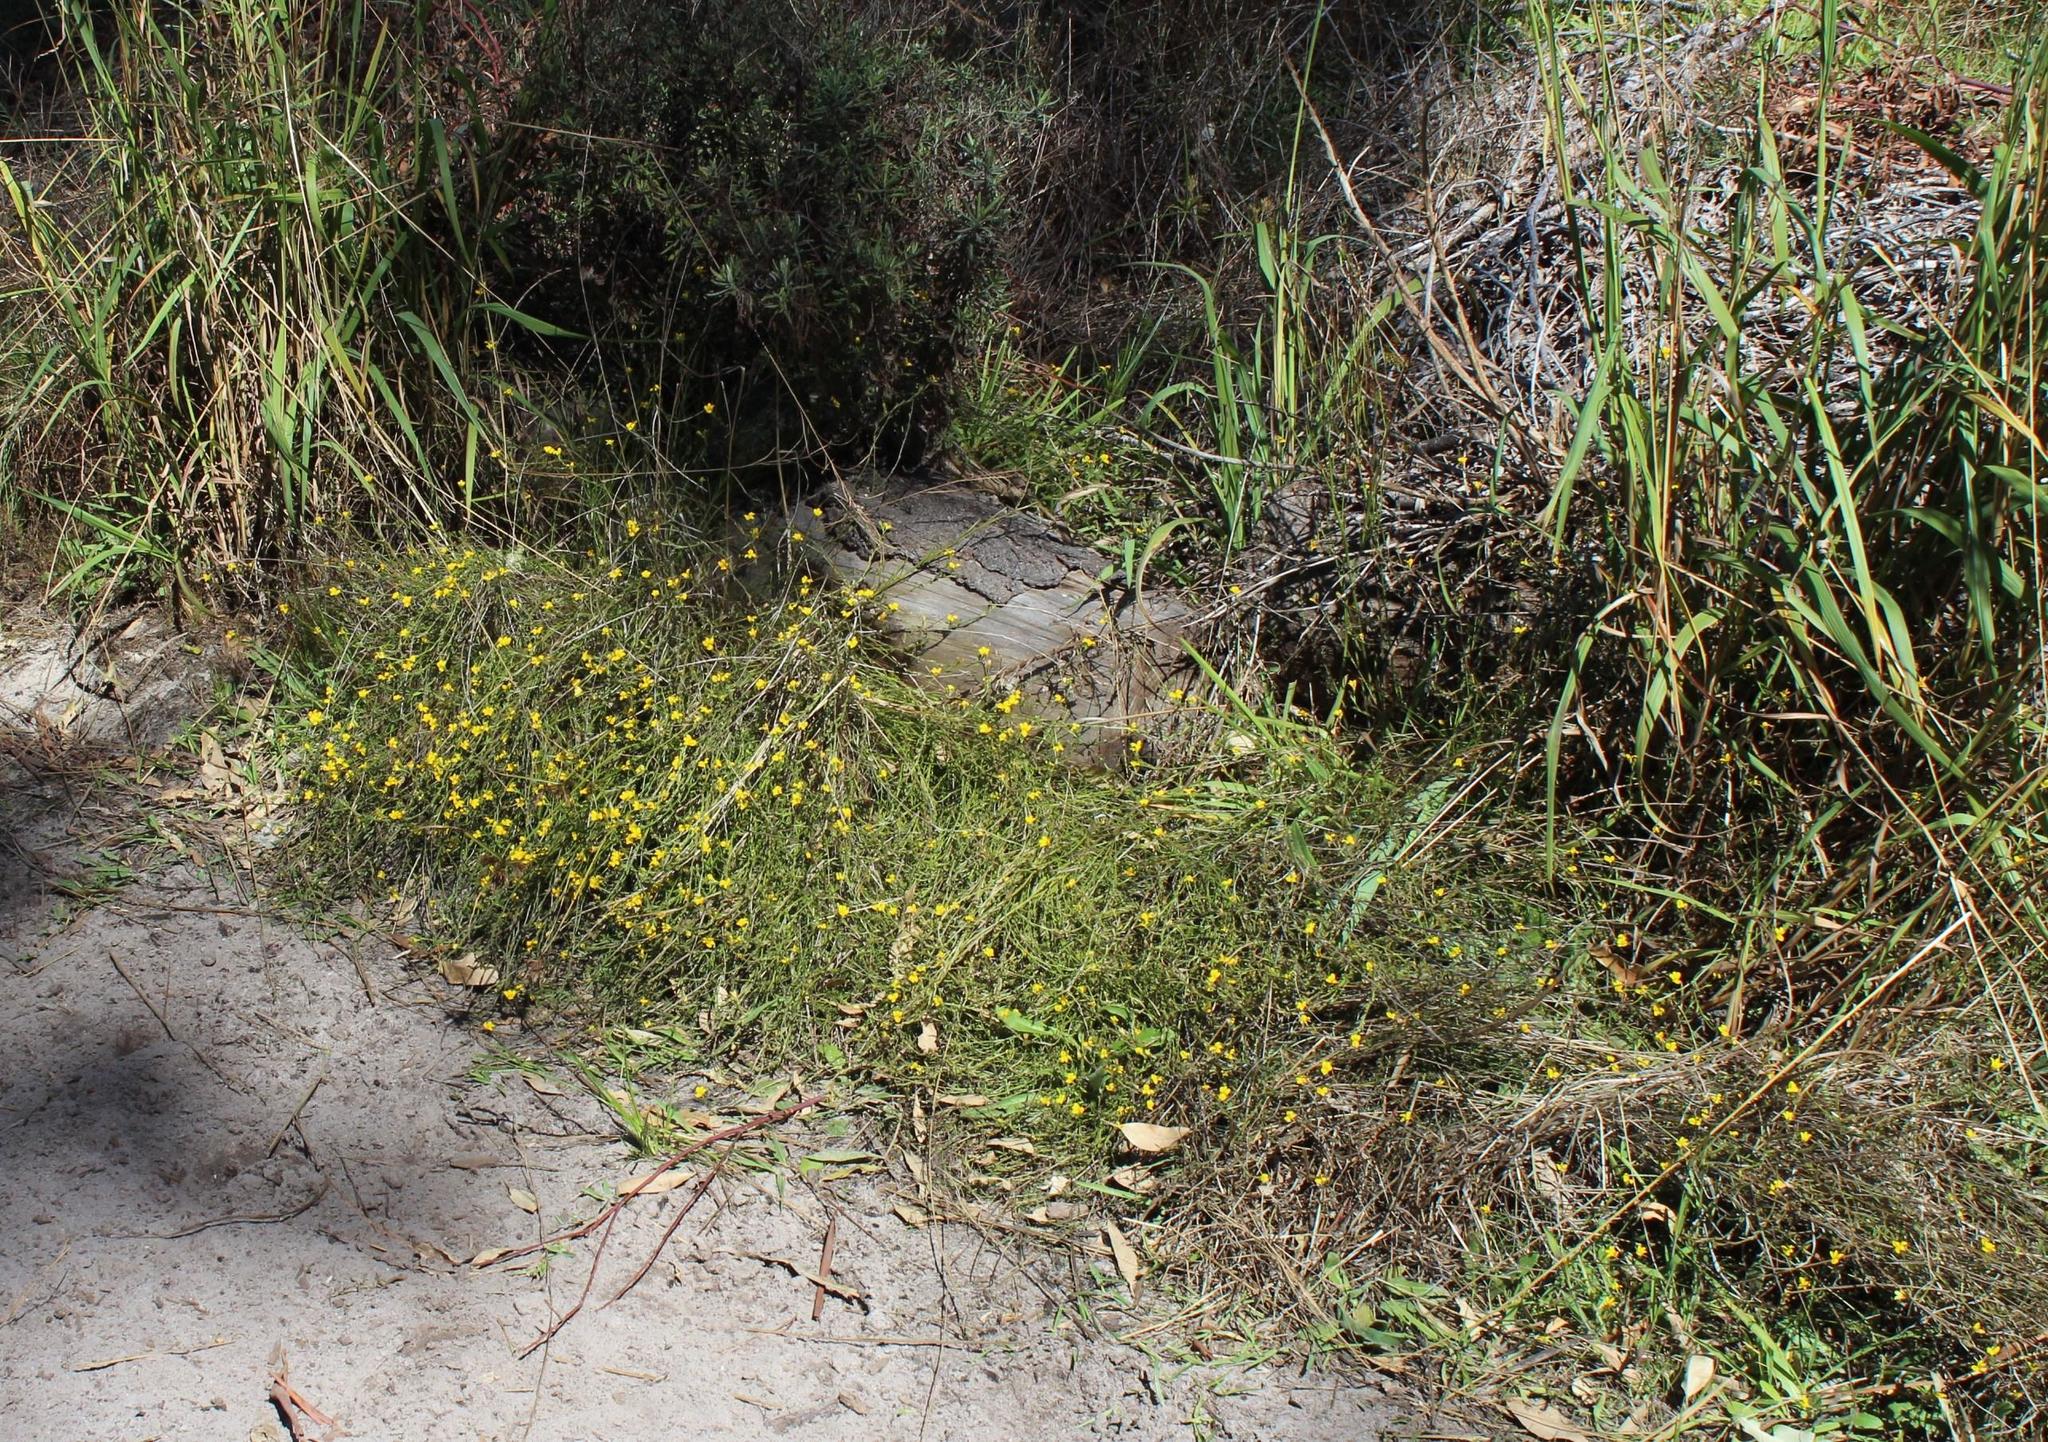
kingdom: Plantae
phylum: Tracheophyta
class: Magnoliopsida
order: Asterales
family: Campanulaceae
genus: Monopsis
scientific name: Monopsis lutea
